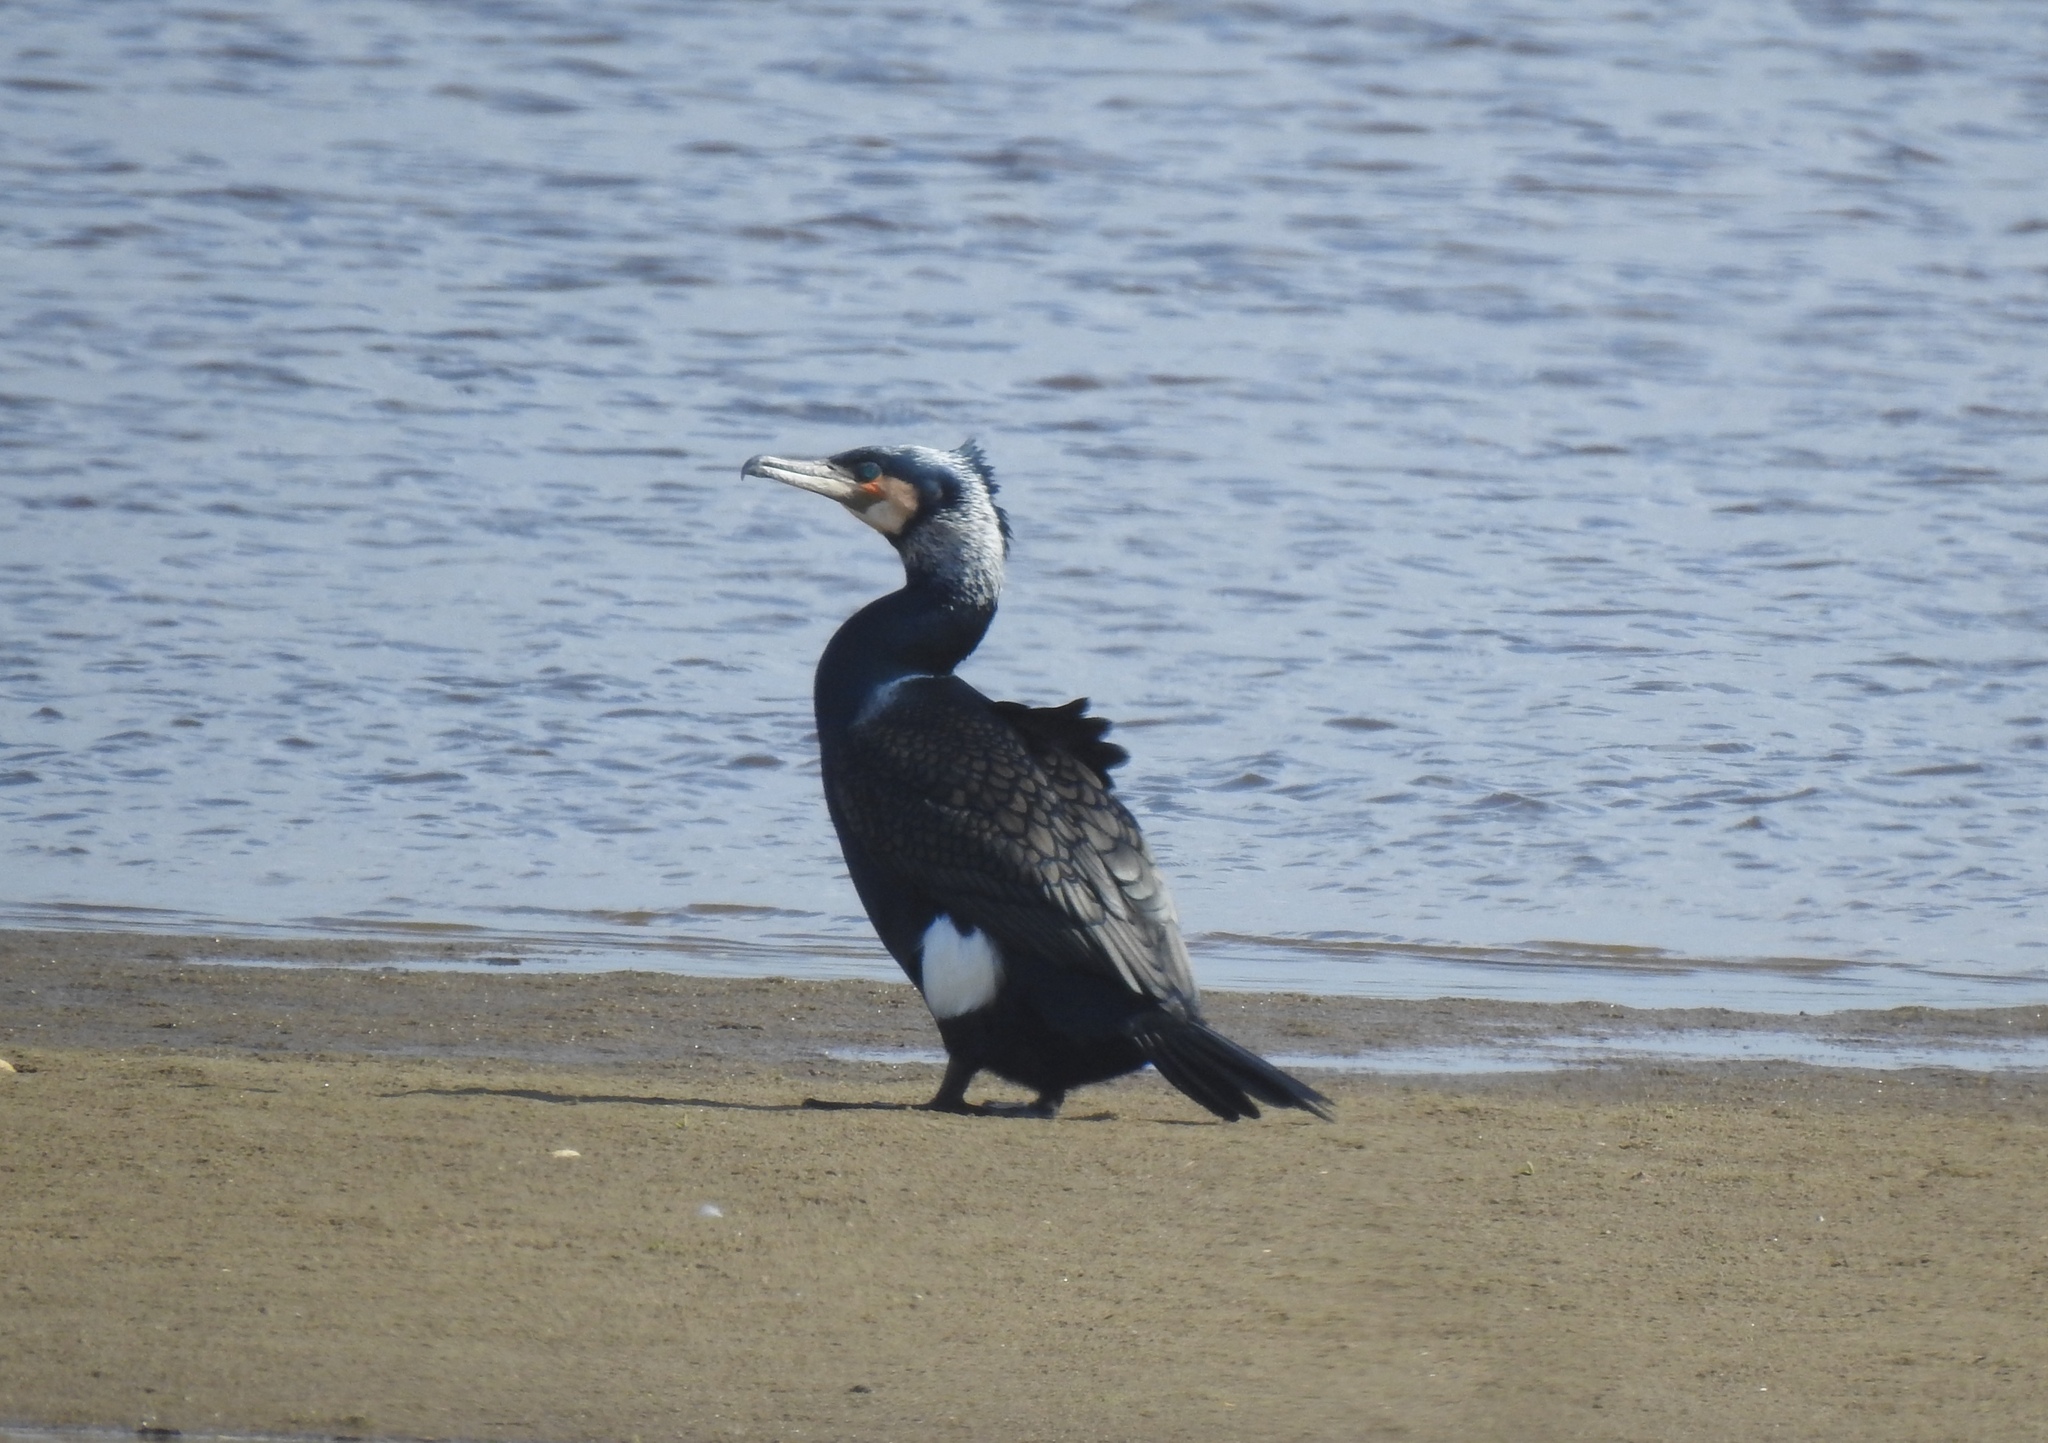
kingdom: Animalia
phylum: Chordata
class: Aves
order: Suliformes
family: Phalacrocoracidae
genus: Phalacrocorax
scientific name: Phalacrocorax carbo
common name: Great cormorant
